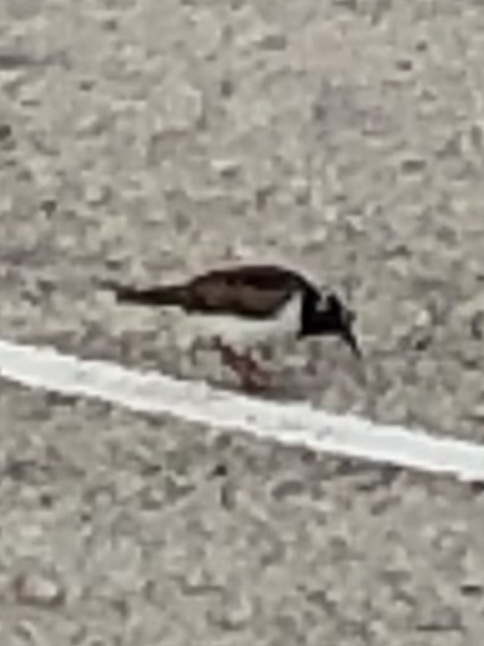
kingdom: Animalia
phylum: Chordata
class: Aves
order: Charadriiformes
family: Scolopacidae
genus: Arenaria
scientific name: Arenaria interpres
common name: Ruddy turnstone
